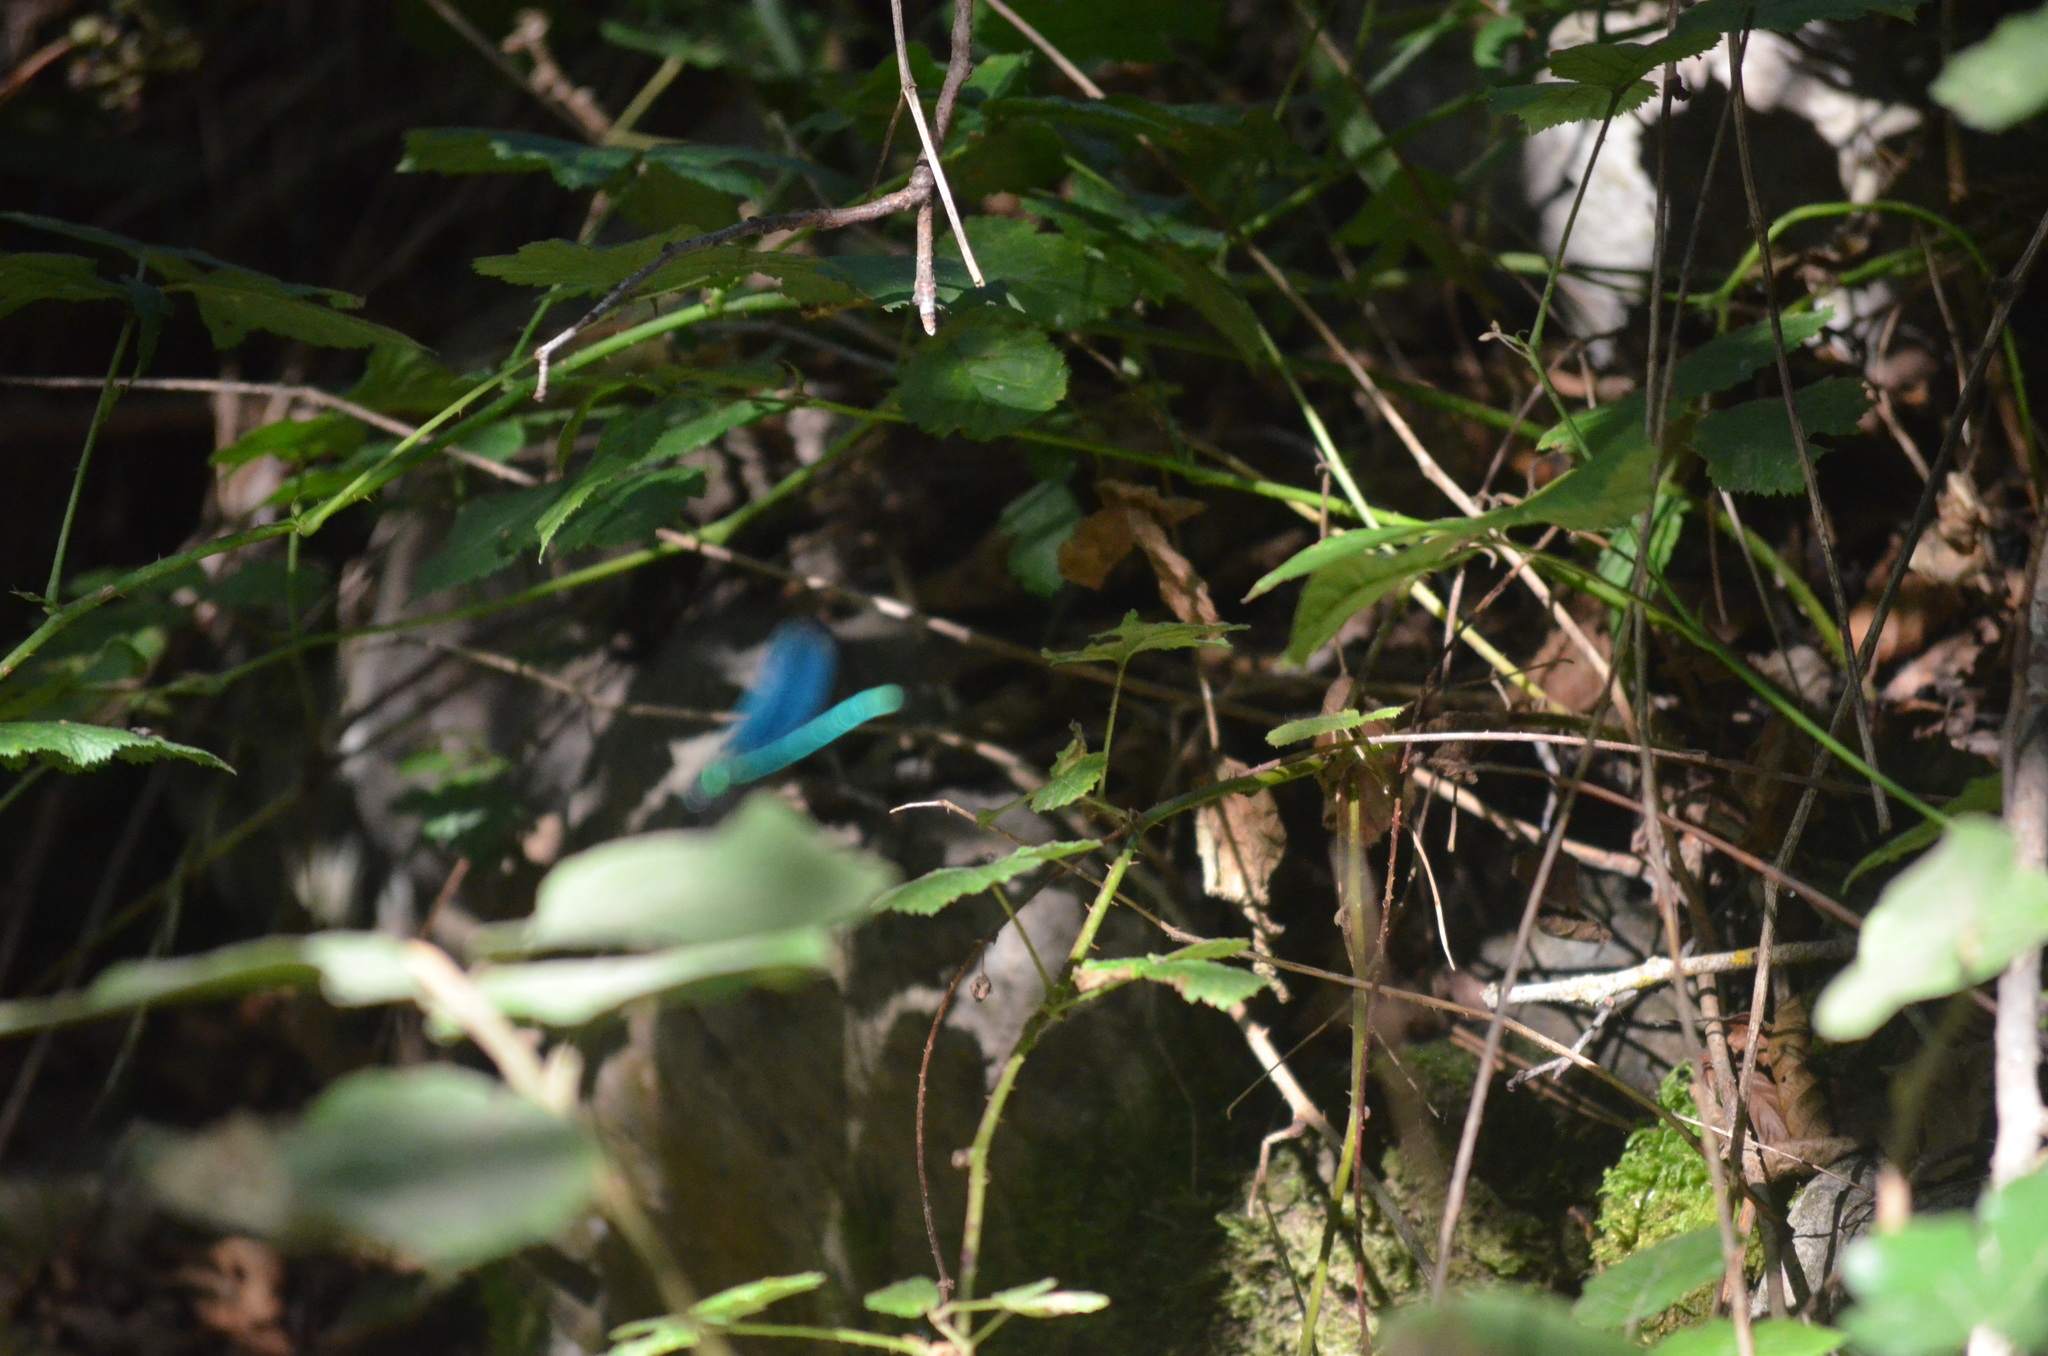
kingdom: Animalia
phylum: Arthropoda
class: Insecta
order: Odonata
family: Calopterygidae
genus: Calopteryx
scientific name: Calopteryx virgo
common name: Beautiful demoiselle
